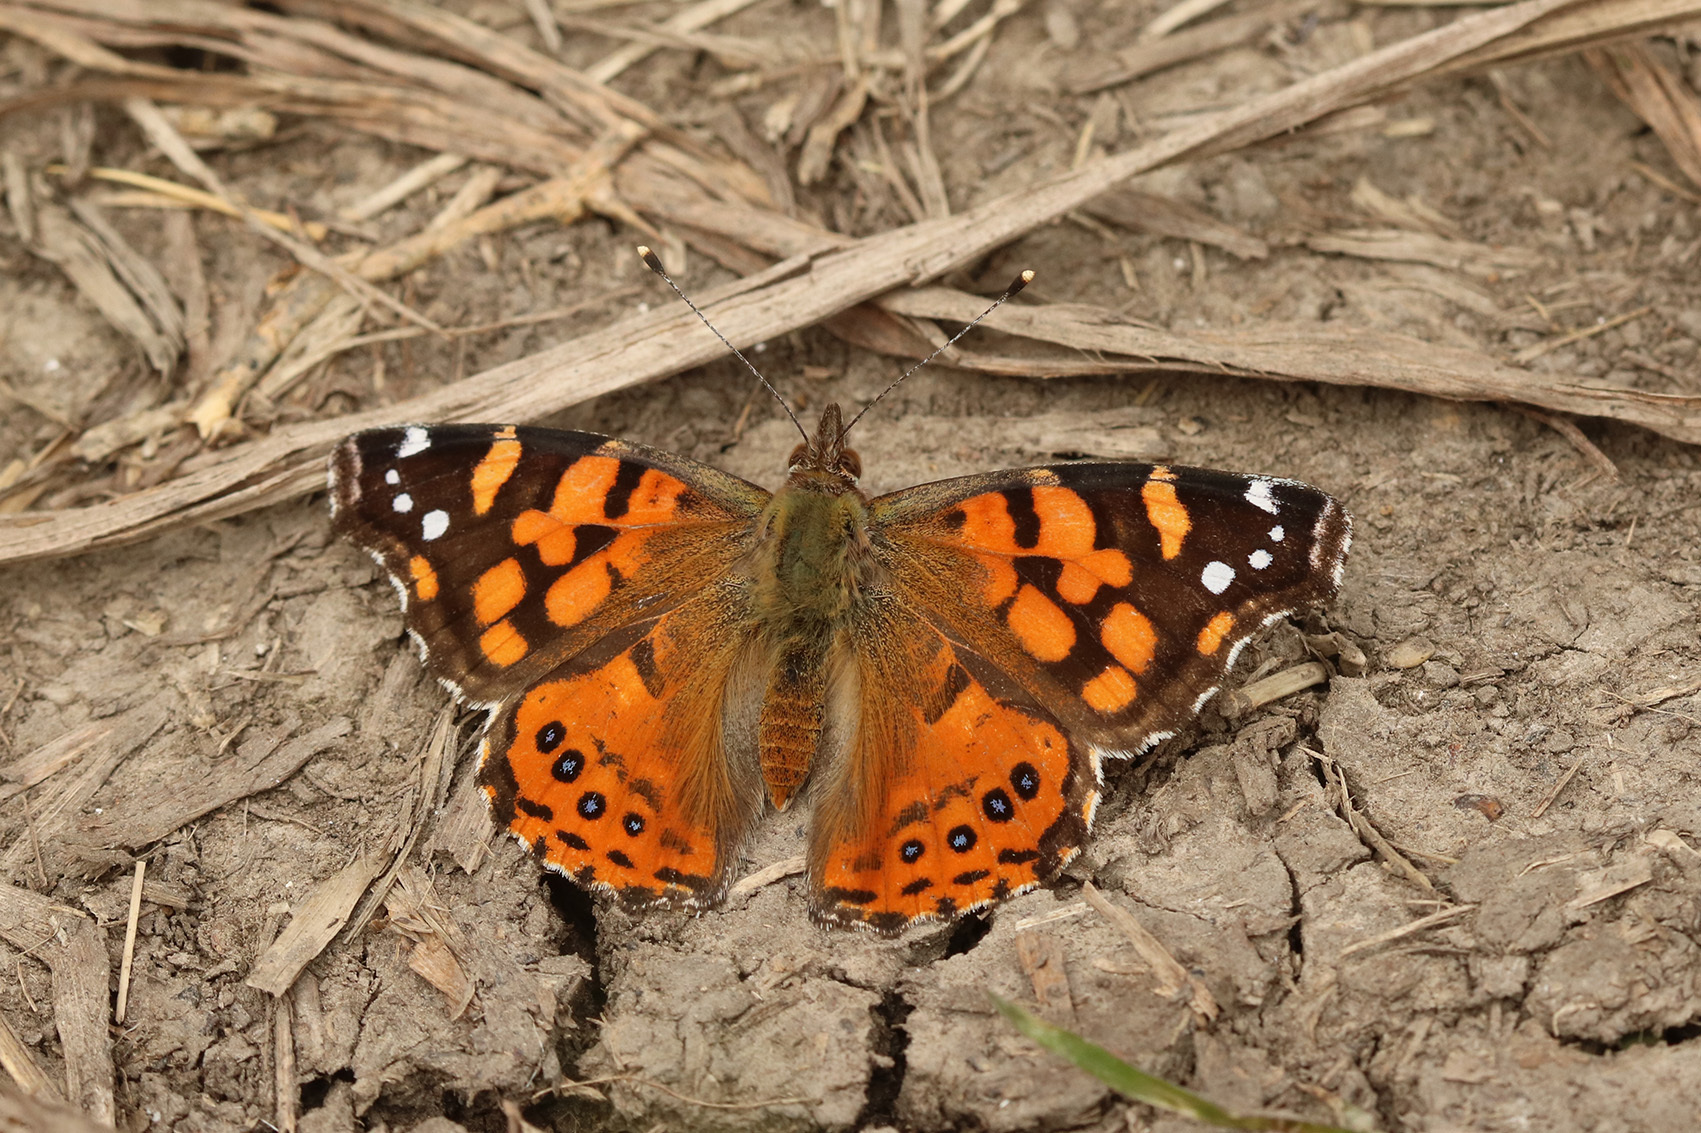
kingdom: Animalia
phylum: Arthropoda
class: Insecta
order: Lepidoptera
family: Nymphalidae
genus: Vanessa
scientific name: Vanessa carye
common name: Subtropical lady
